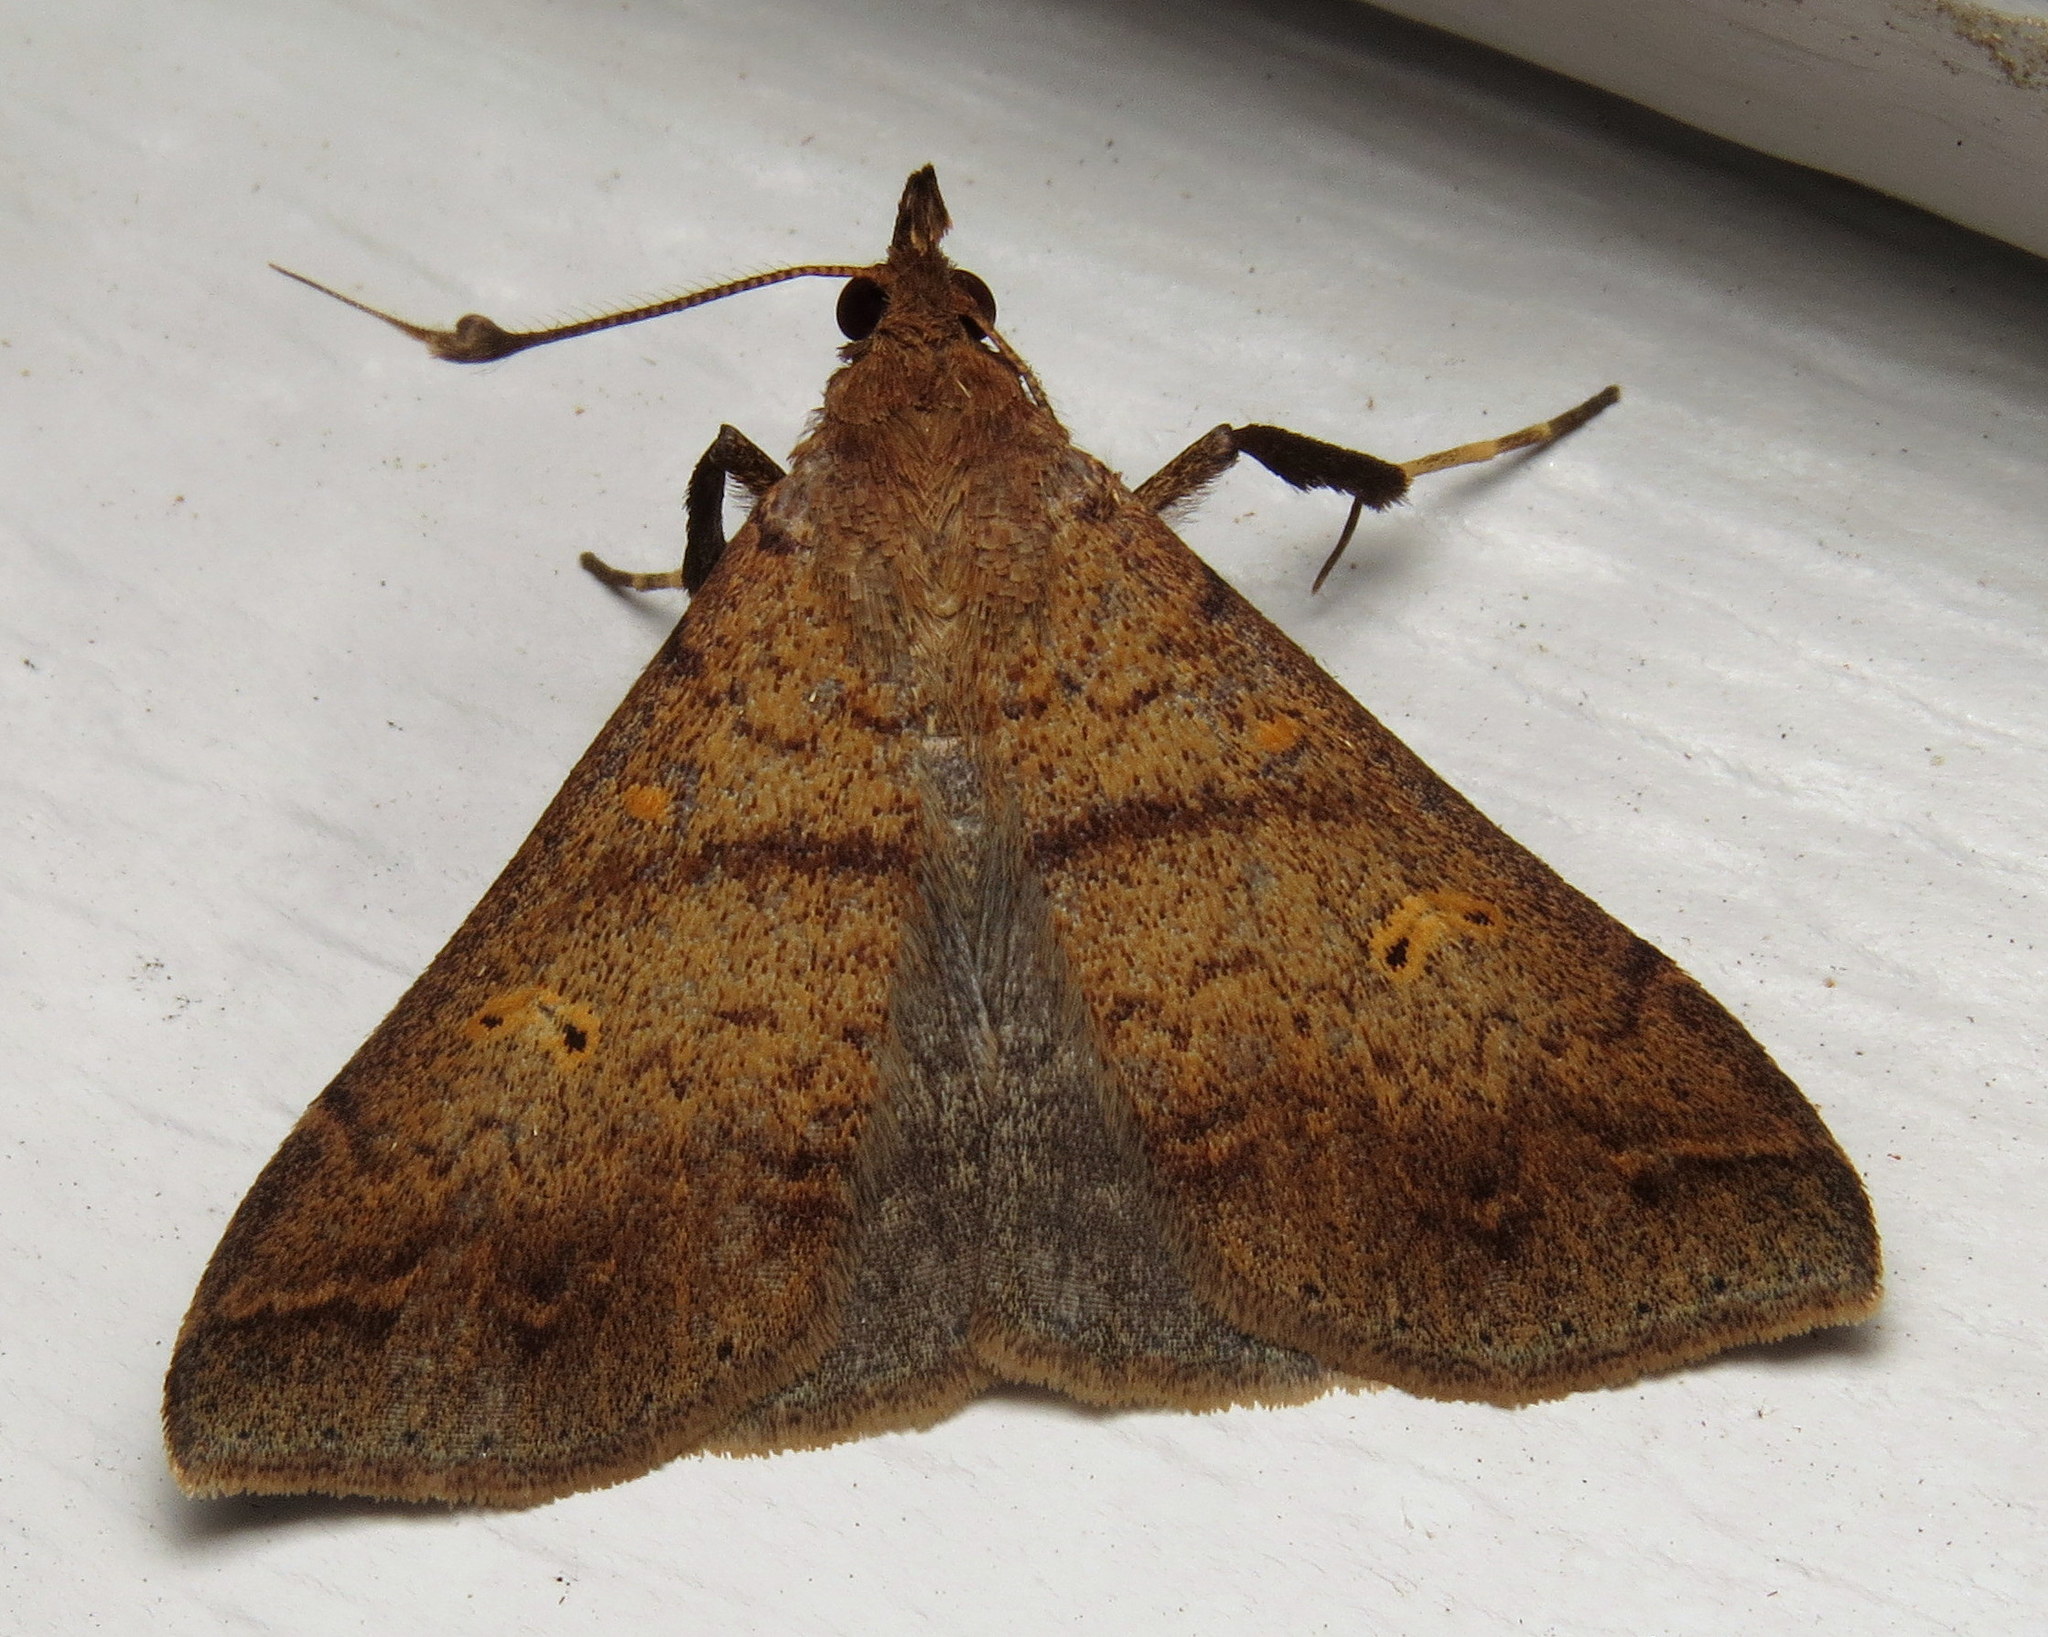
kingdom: Animalia
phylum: Arthropoda
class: Insecta
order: Lepidoptera
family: Erebidae
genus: Renia
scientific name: Renia discoloralis
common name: Discolored renia moth
